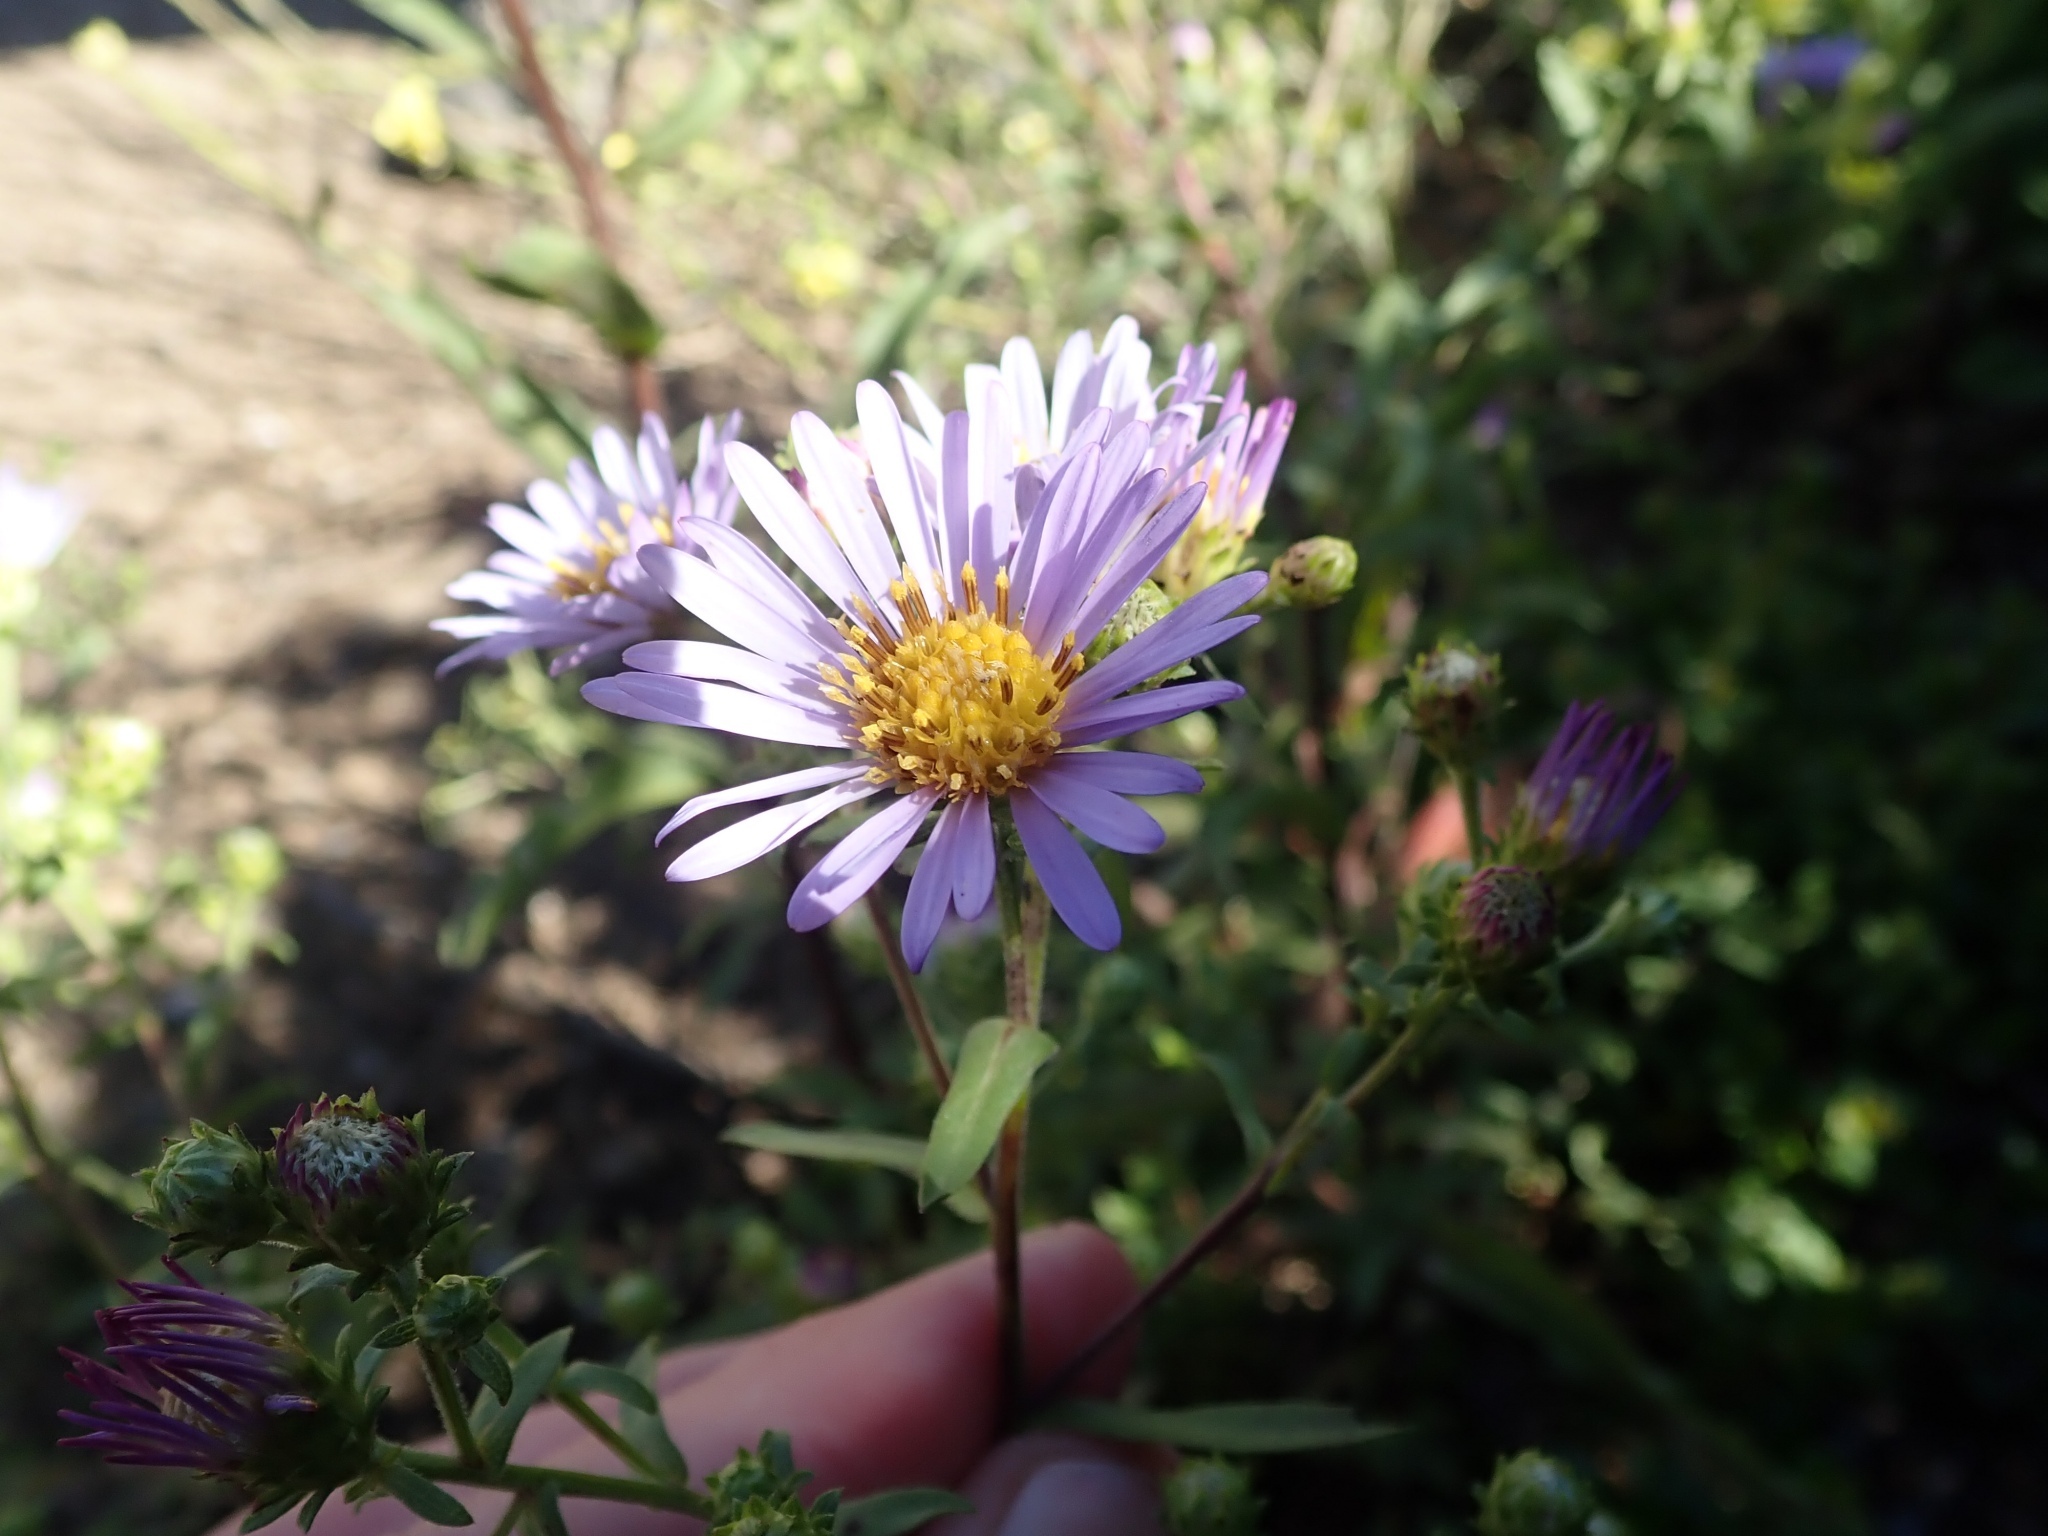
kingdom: Plantae
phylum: Tracheophyta
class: Magnoliopsida
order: Asterales
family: Asteraceae
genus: Symphyotrichum
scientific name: Symphyotrichum chilense
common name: Pacific aster
